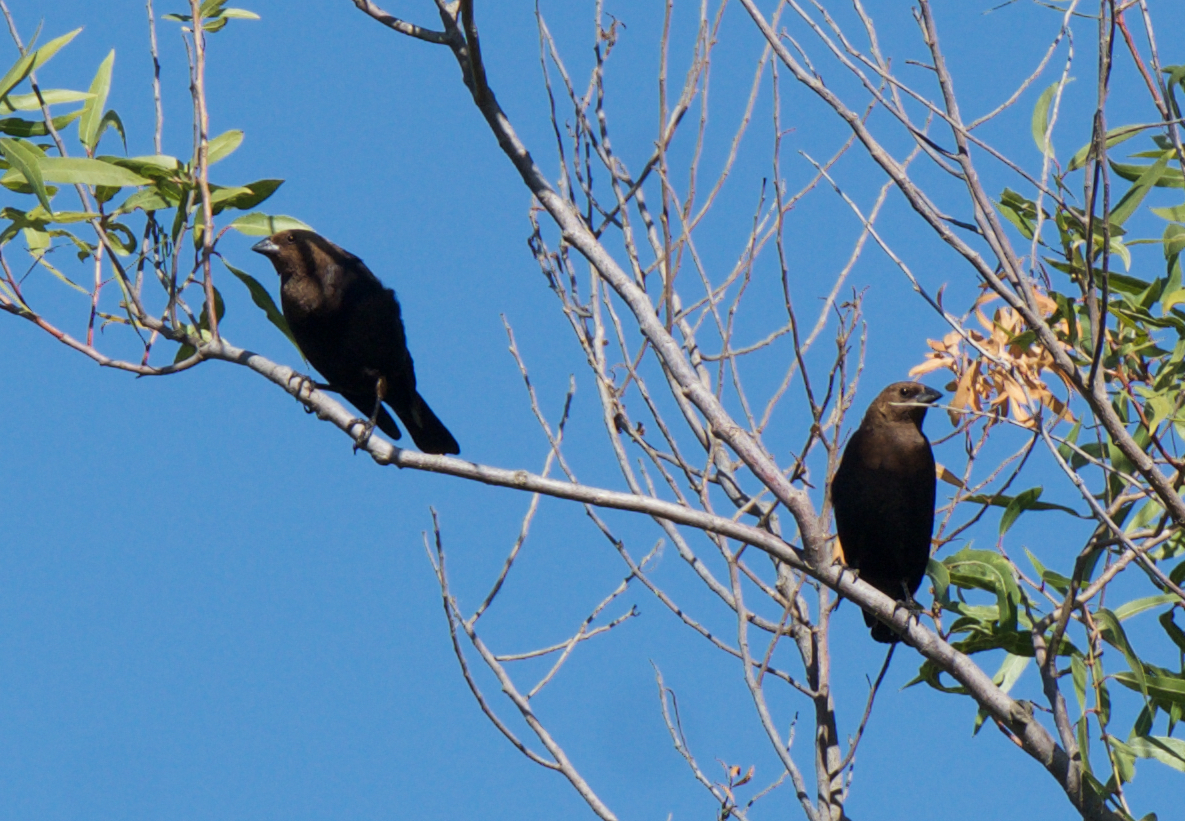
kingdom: Animalia
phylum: Chordata
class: Aves
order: Passeriformes
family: Icteridae
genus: Molothrus
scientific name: Molothrus ater
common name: Brown-headed cowbird
